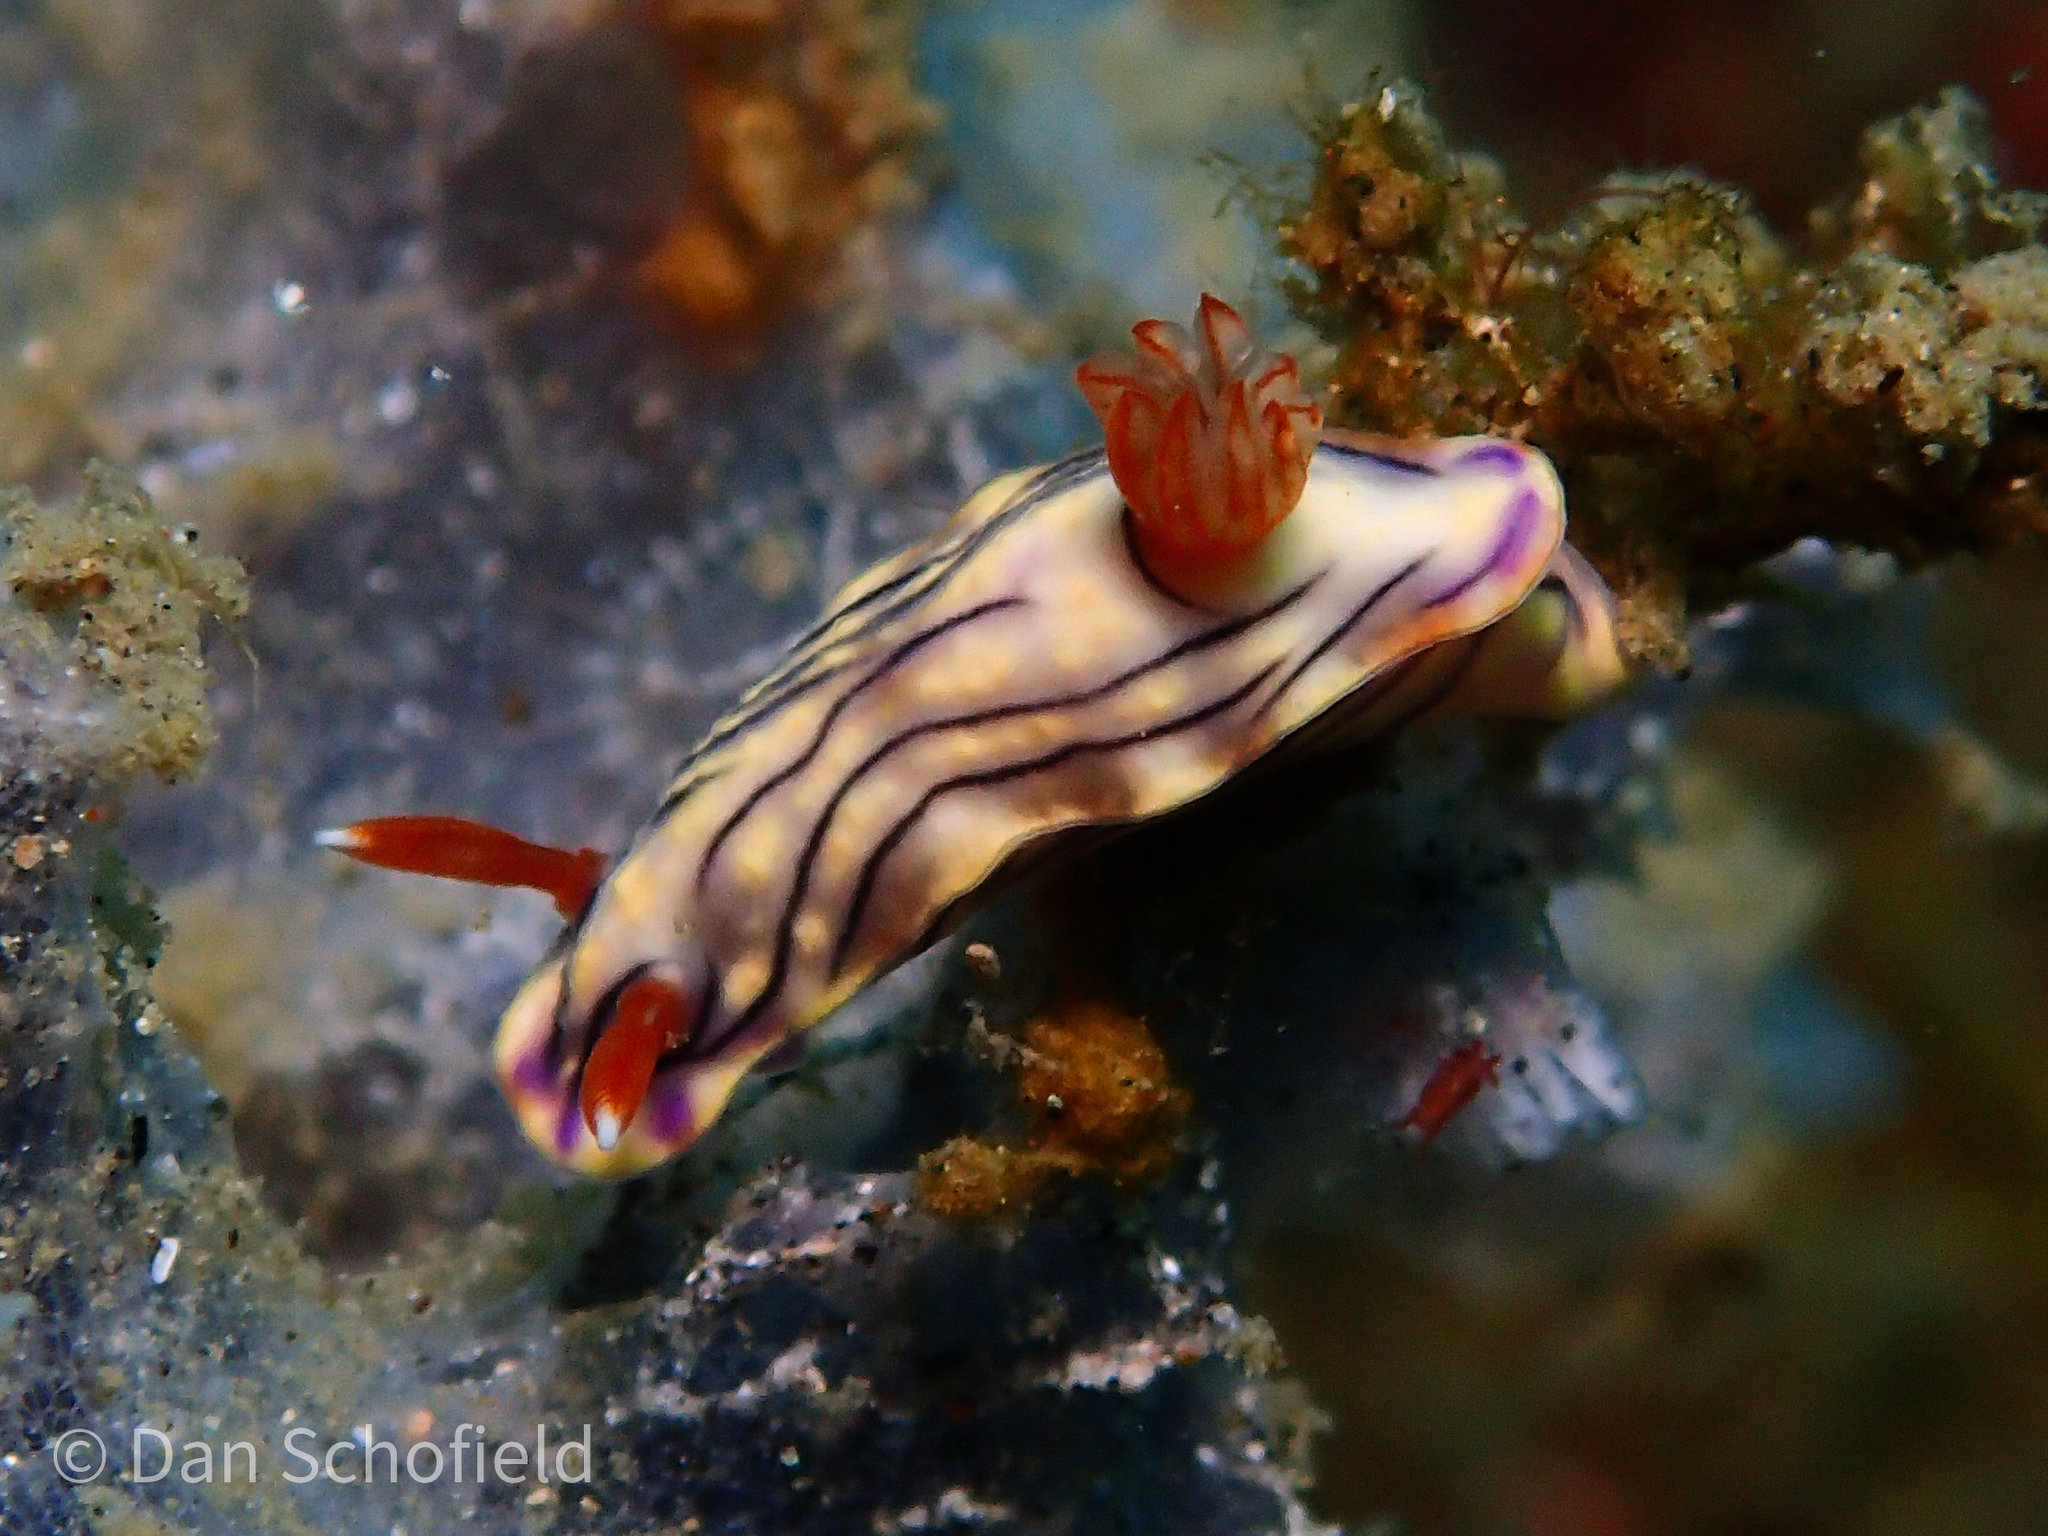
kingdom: Animalia
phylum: Mollusca
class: Gastropoda
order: Nudibranchia
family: Chromodorididae
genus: Hypselodoris
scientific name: Hypselodoris zephyra
